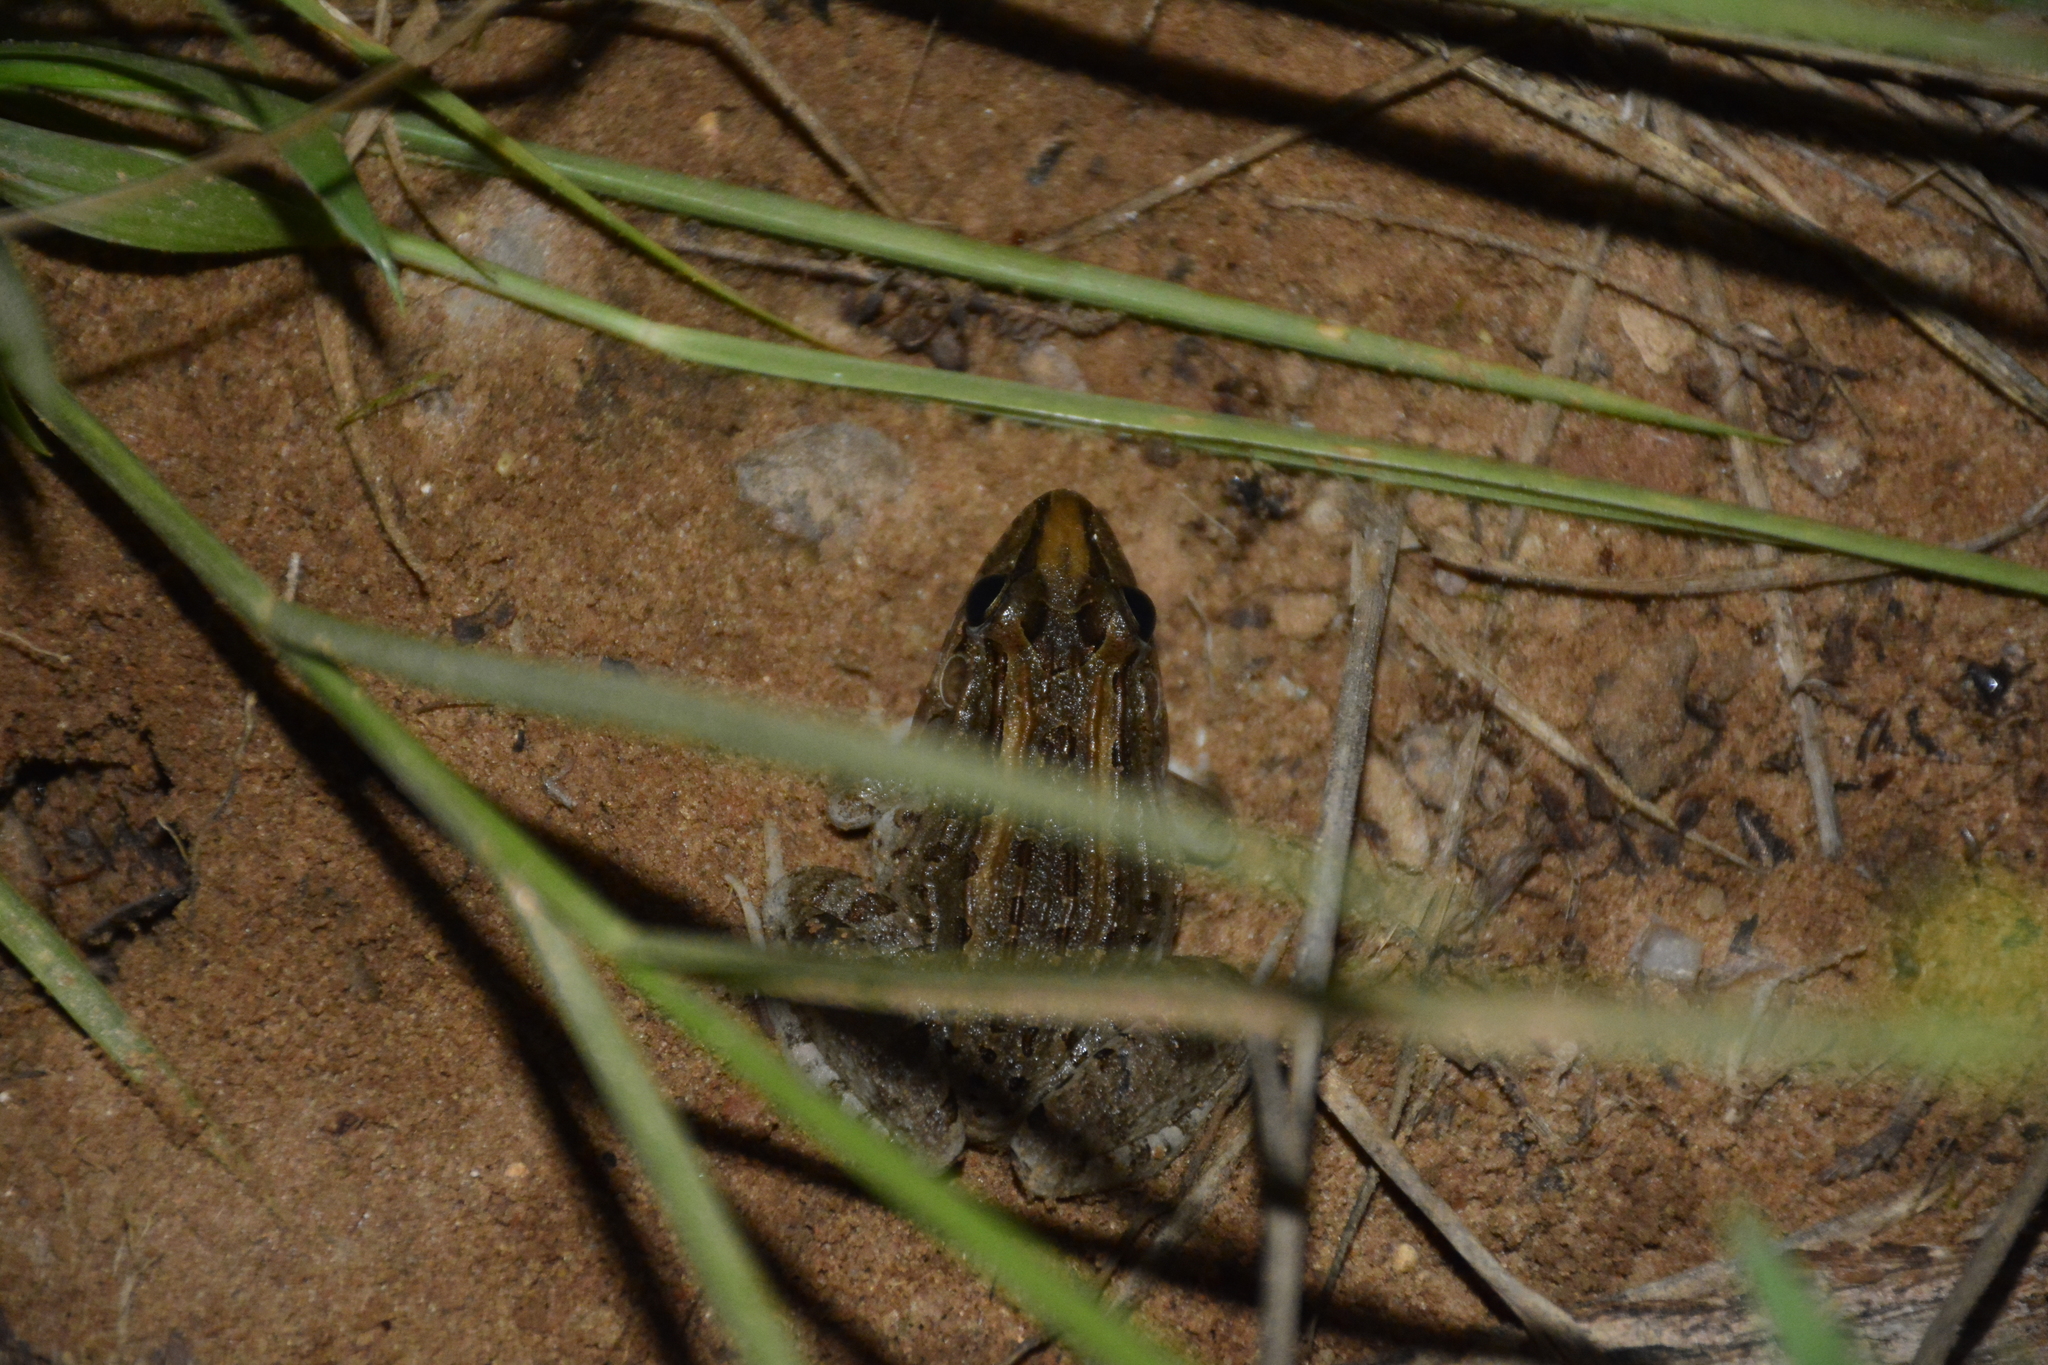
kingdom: Animalia
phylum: Chordata
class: Amphibia
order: Anura
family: Leptodactylidae
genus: Leptodactylus
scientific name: Leptodactylus macrosternum
